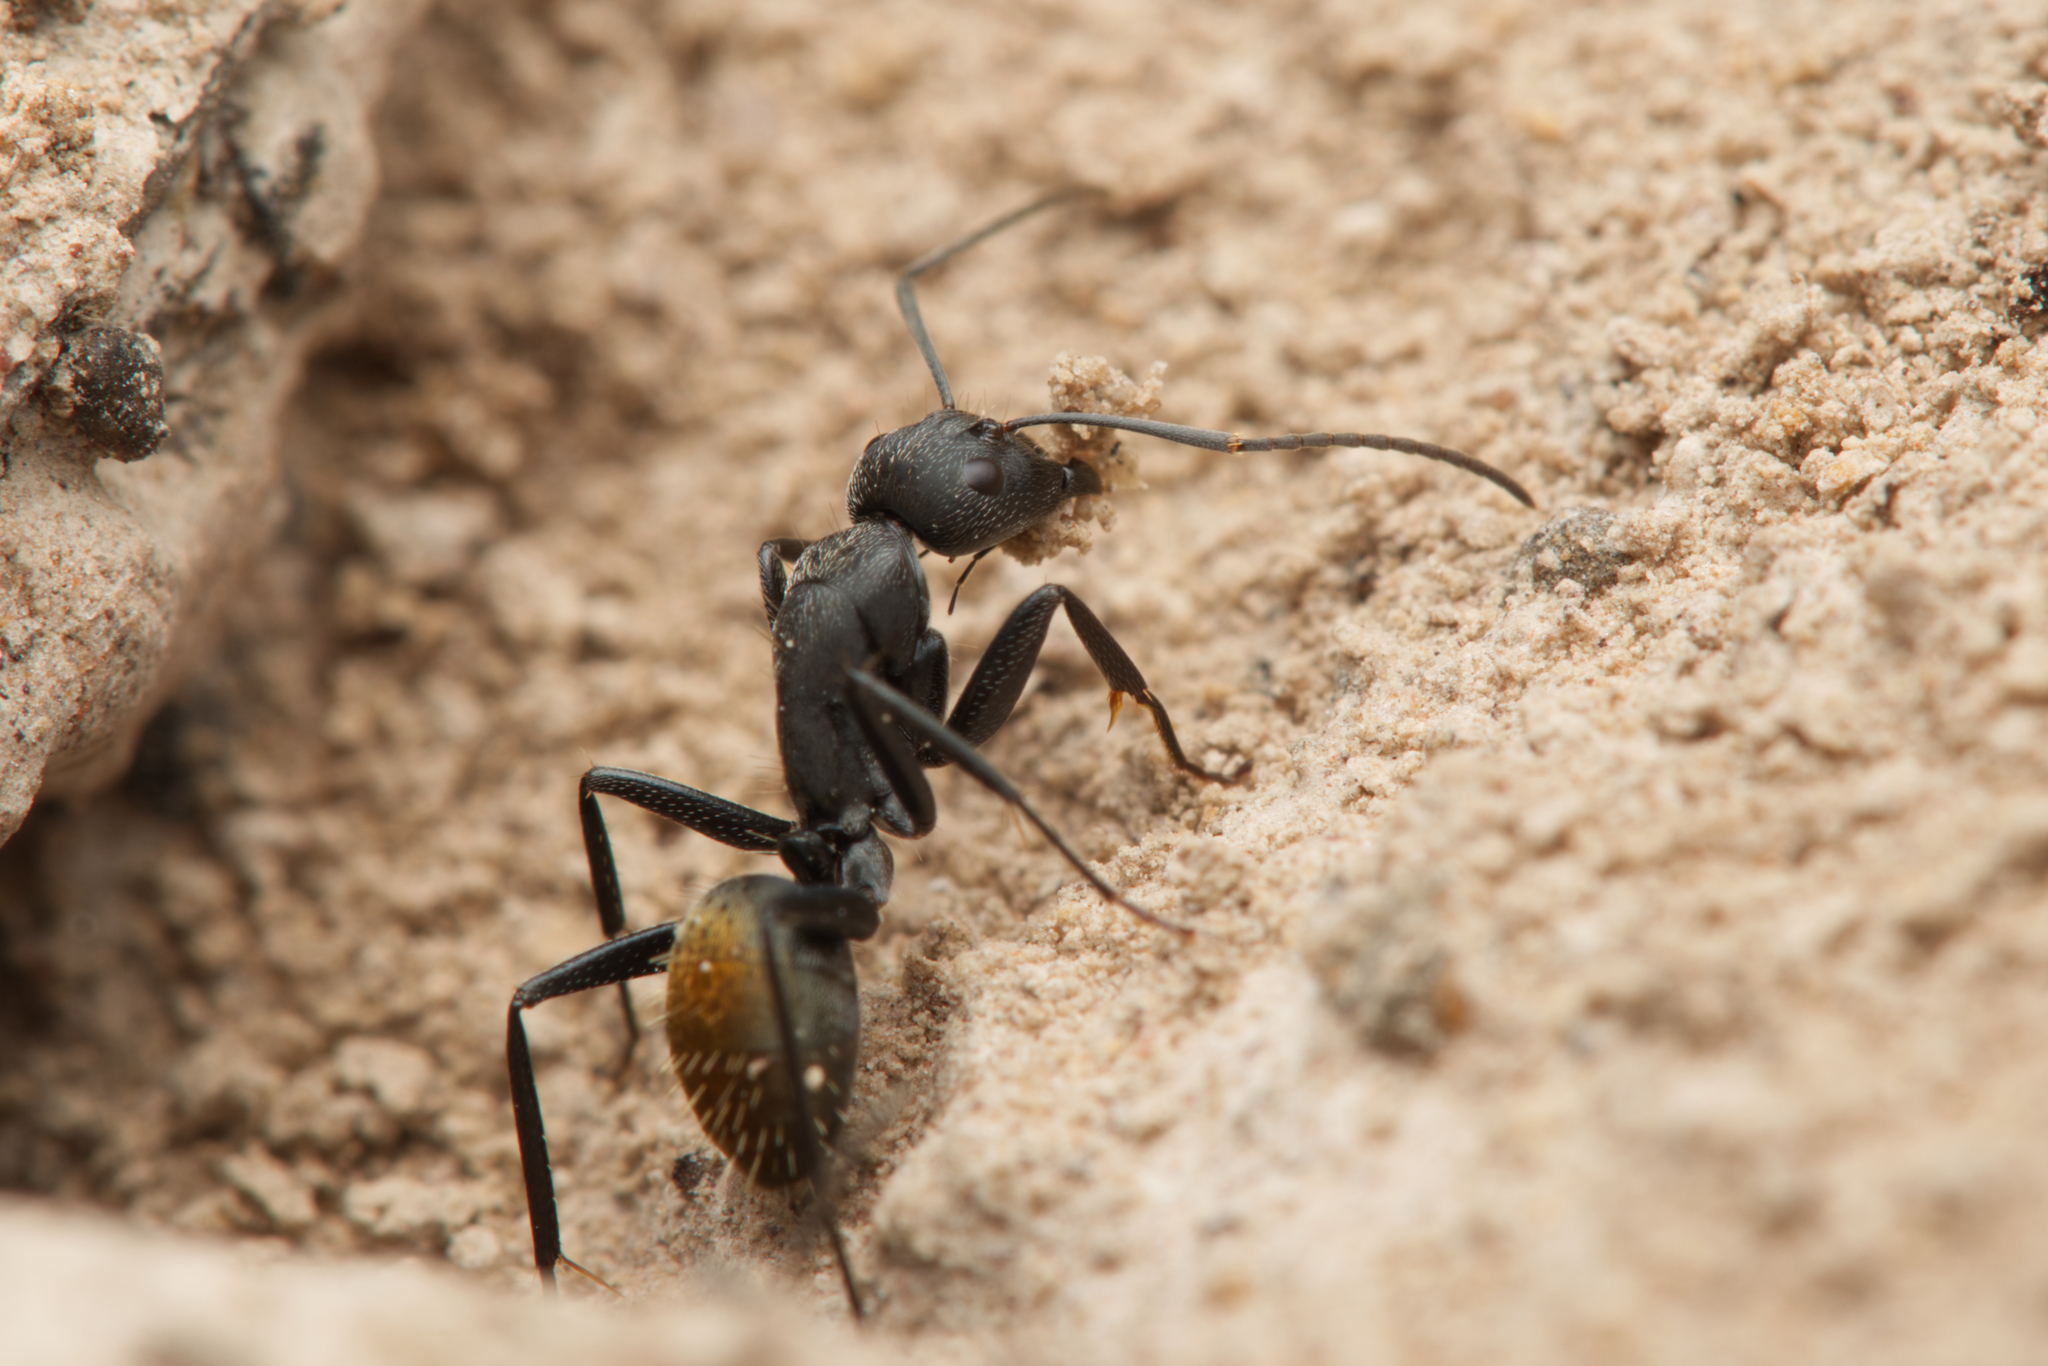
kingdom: Animalia
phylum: Arthropoda
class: Insecta
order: Hymenoptera
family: Formicidae
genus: Camponotus
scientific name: Camponotus aeneopilosus
